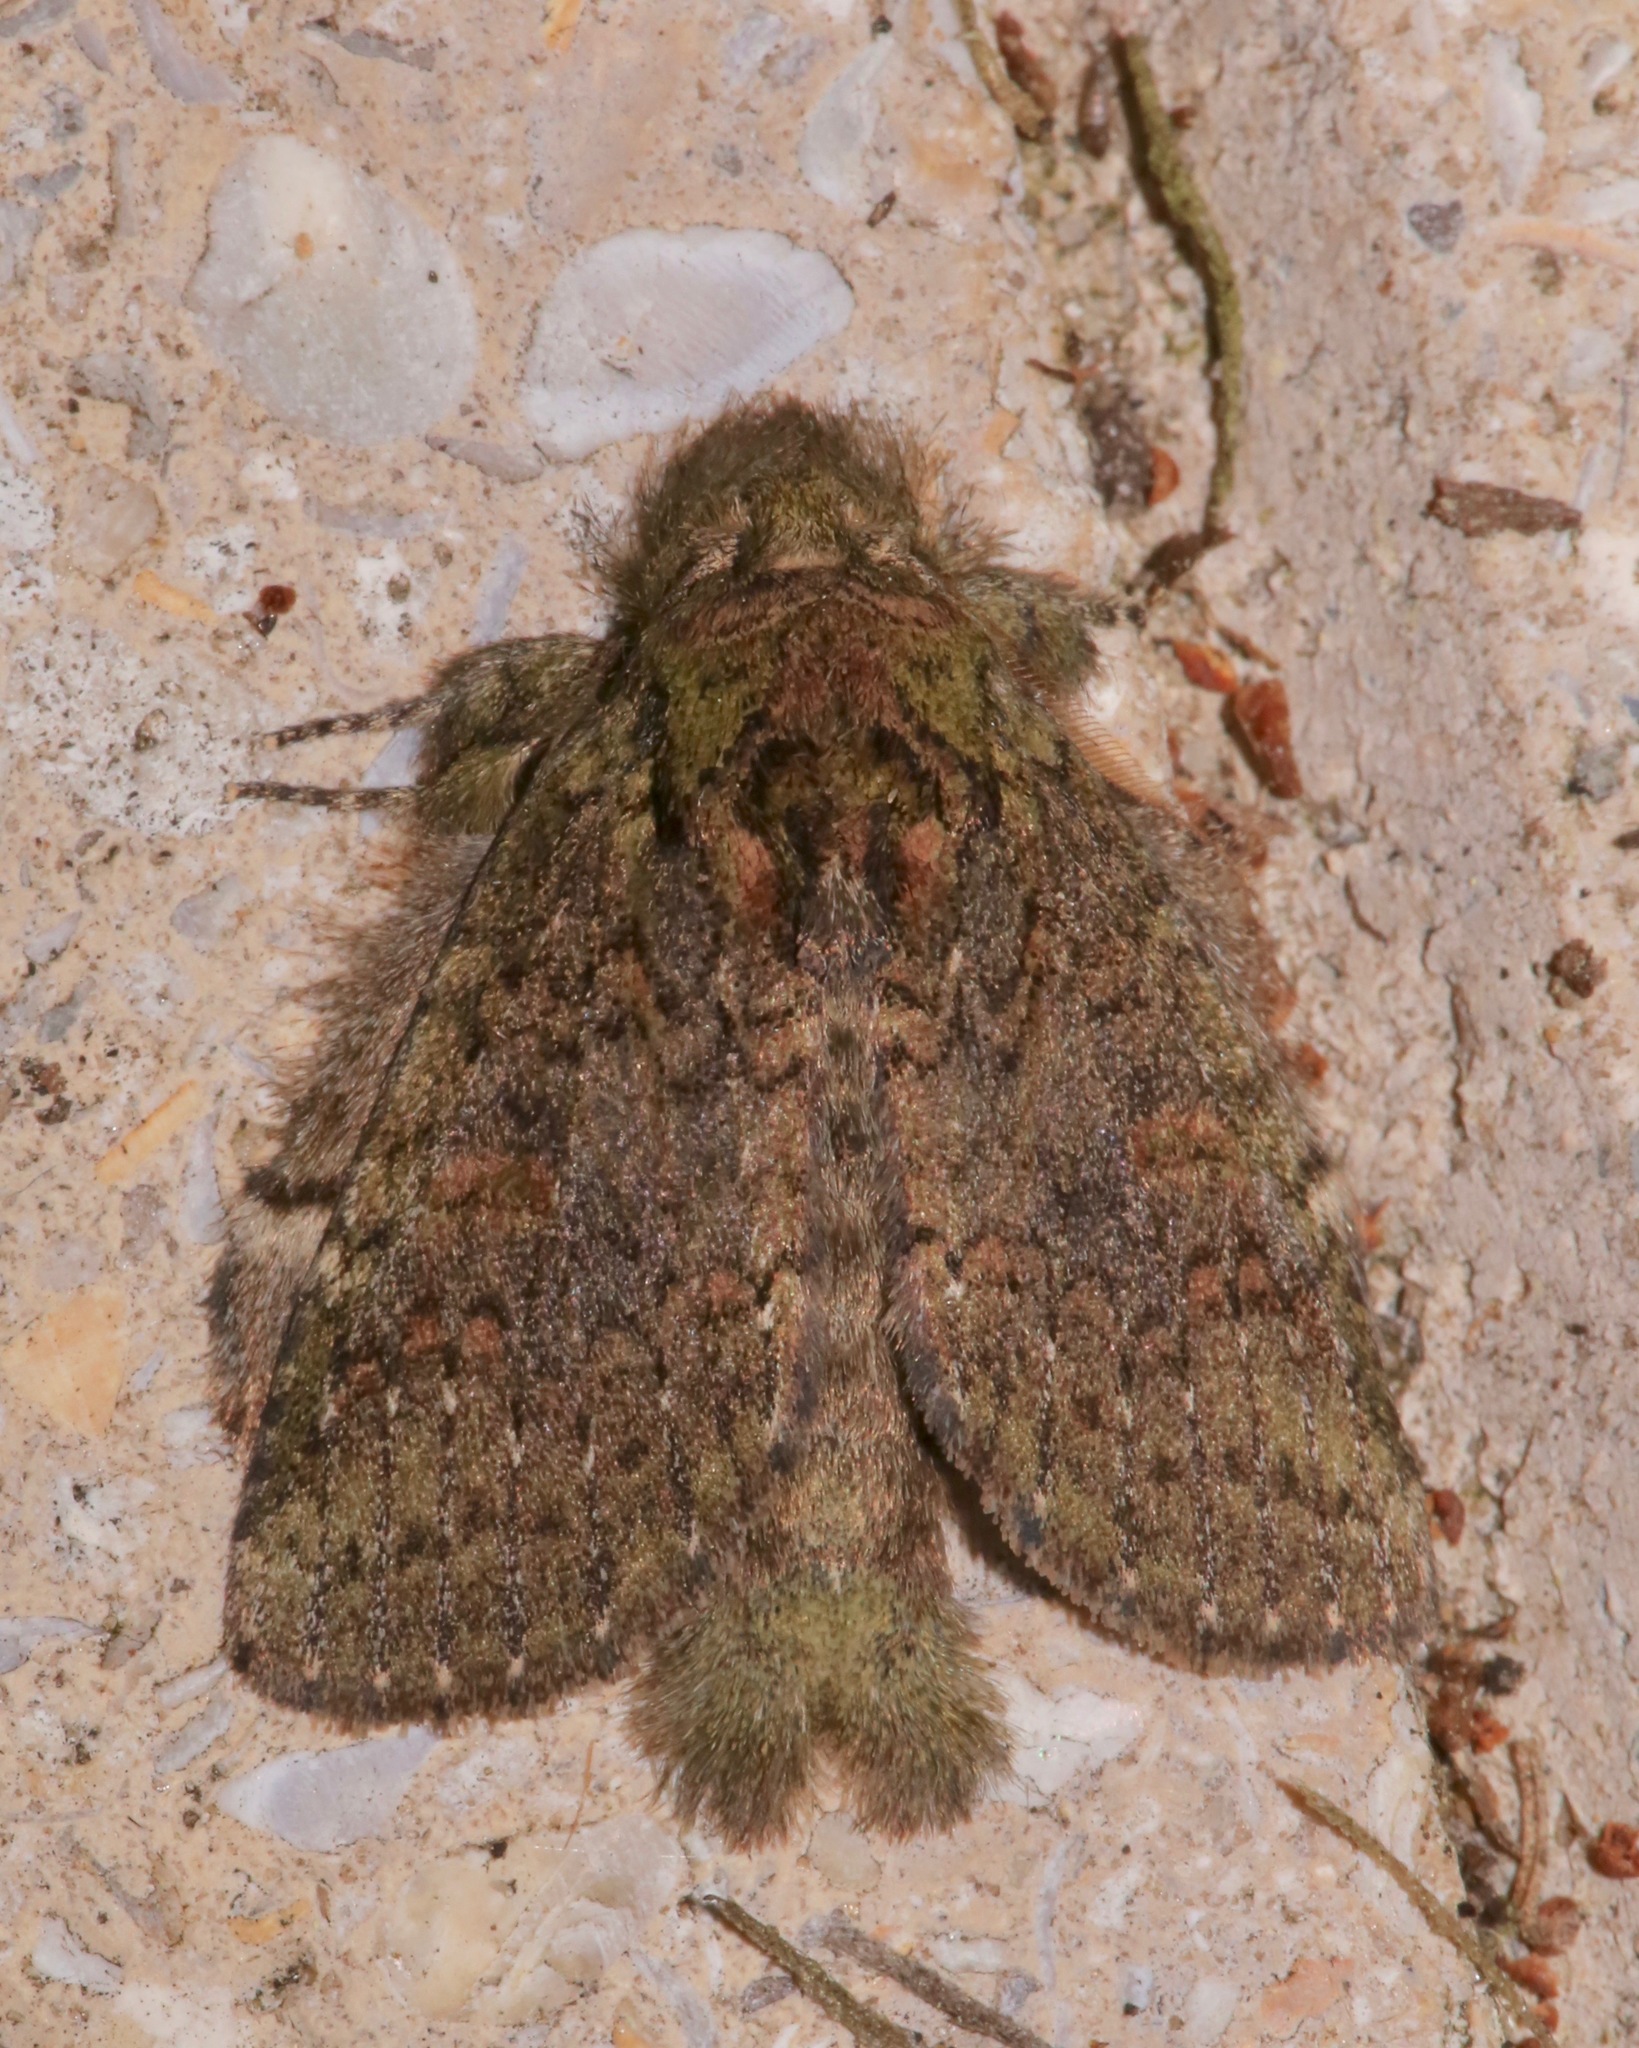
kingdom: Animalia
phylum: Arthropoda
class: Insecta
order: Lepidoptera
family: Notodontidae
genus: Disphragis
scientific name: Disphragis Cecrita biundata
